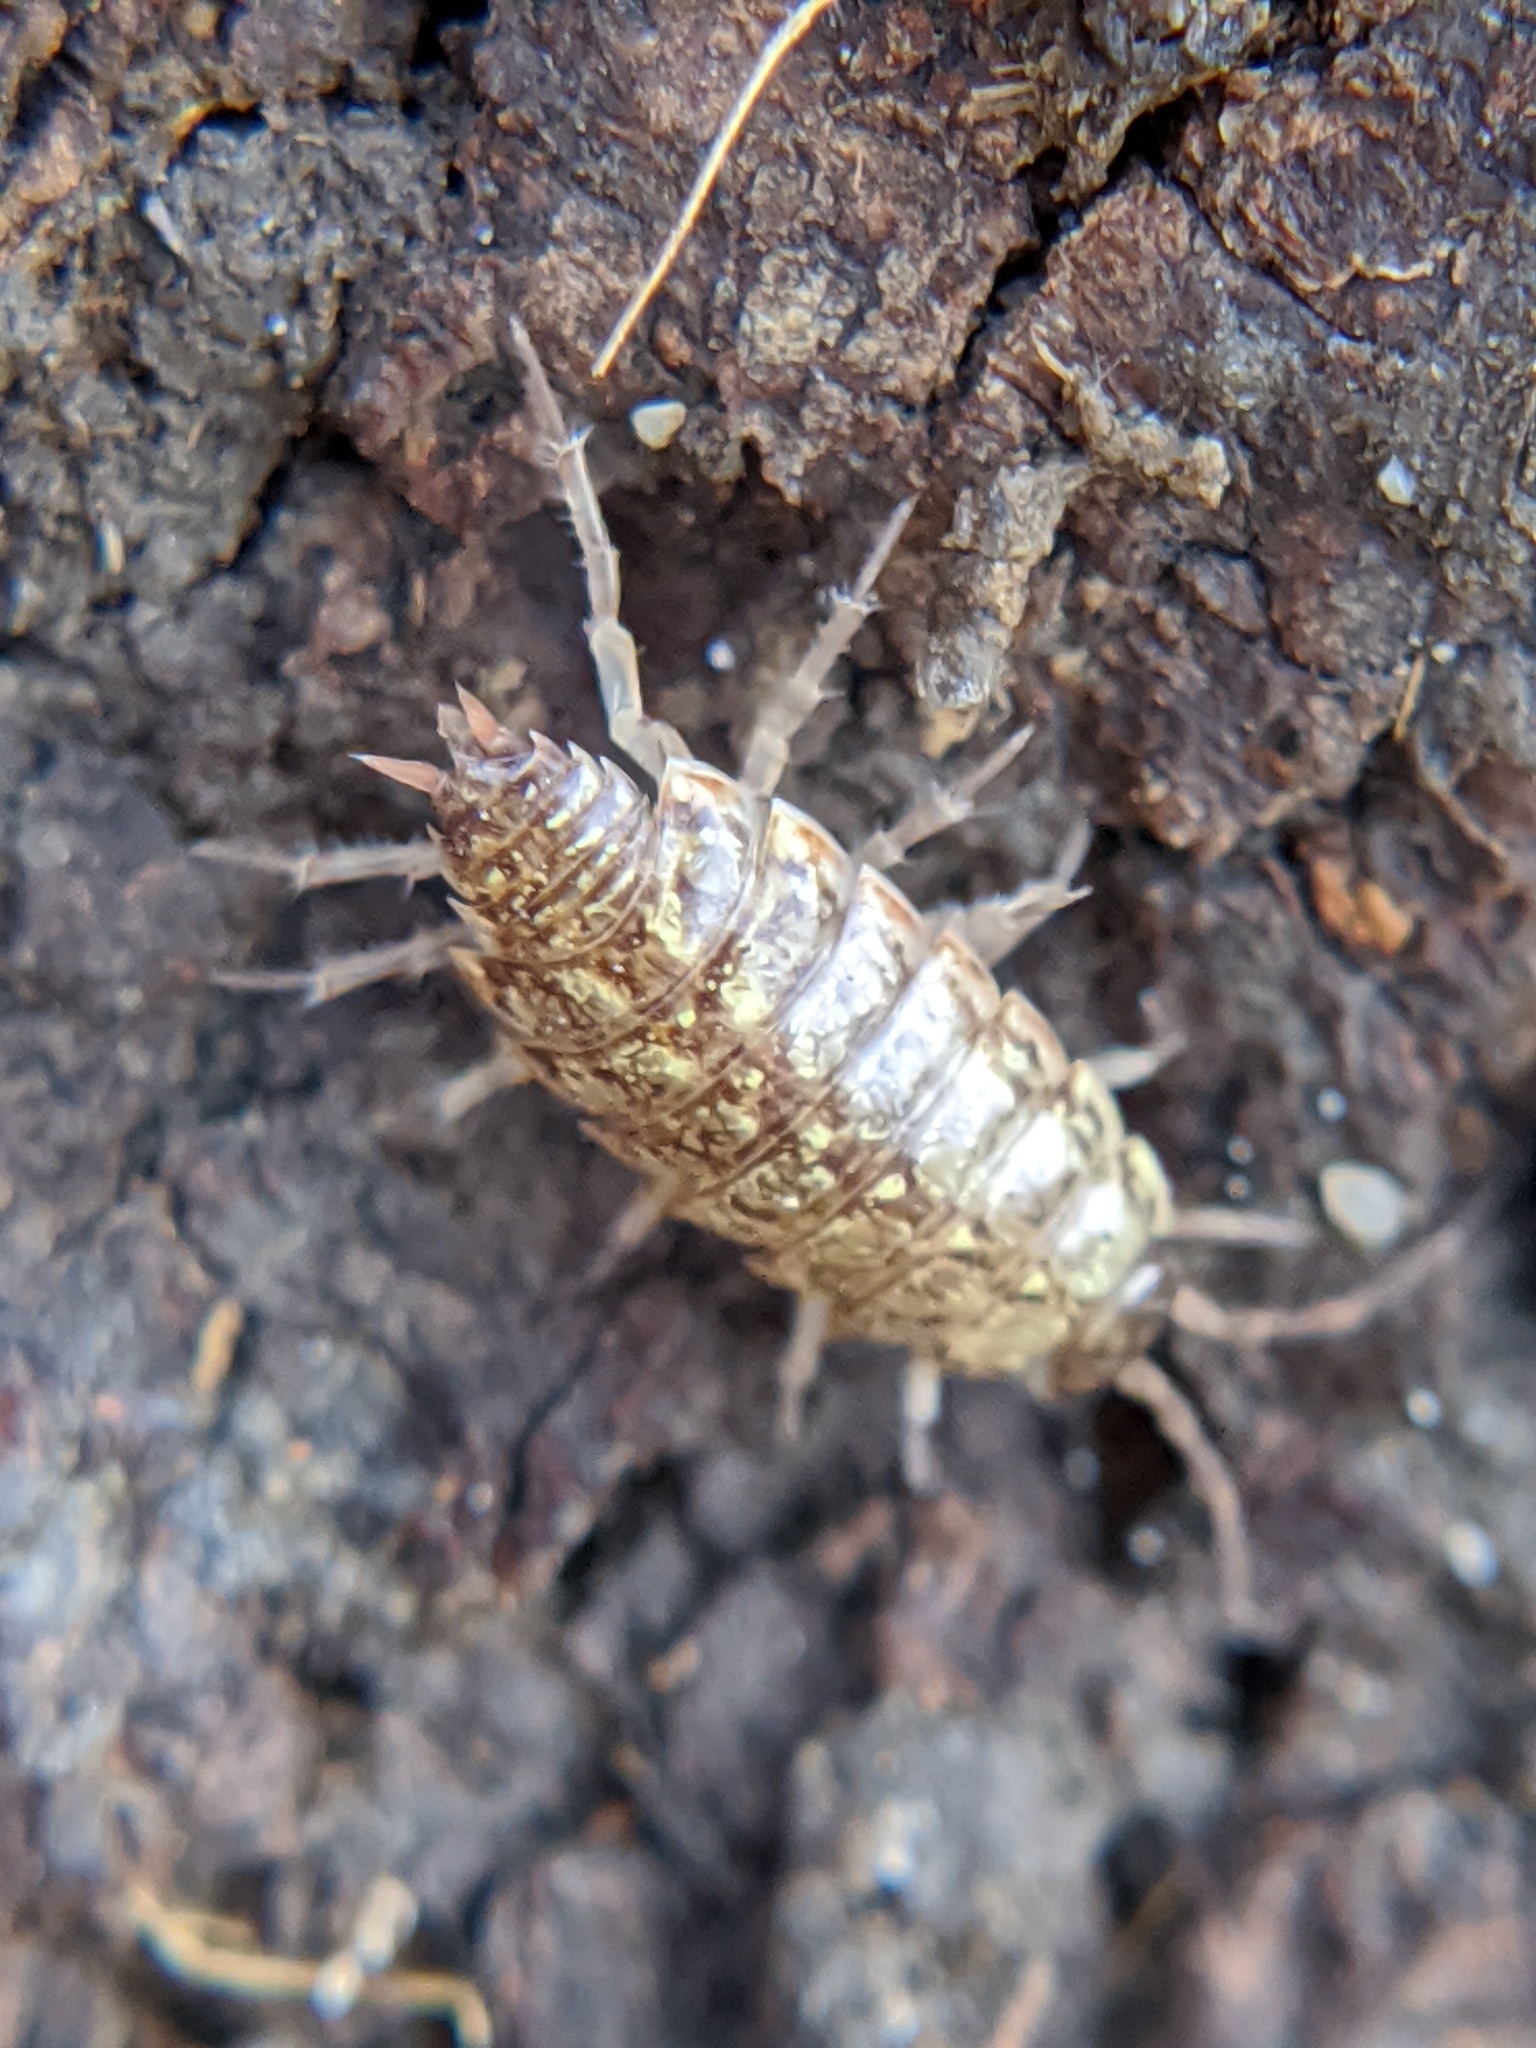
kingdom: Animalia
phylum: Arthropoda
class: Malacostraca
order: Isopoda
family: Philosciidae
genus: Philoscia
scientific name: Philoscia muscorum
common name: Common striped woodlouse
